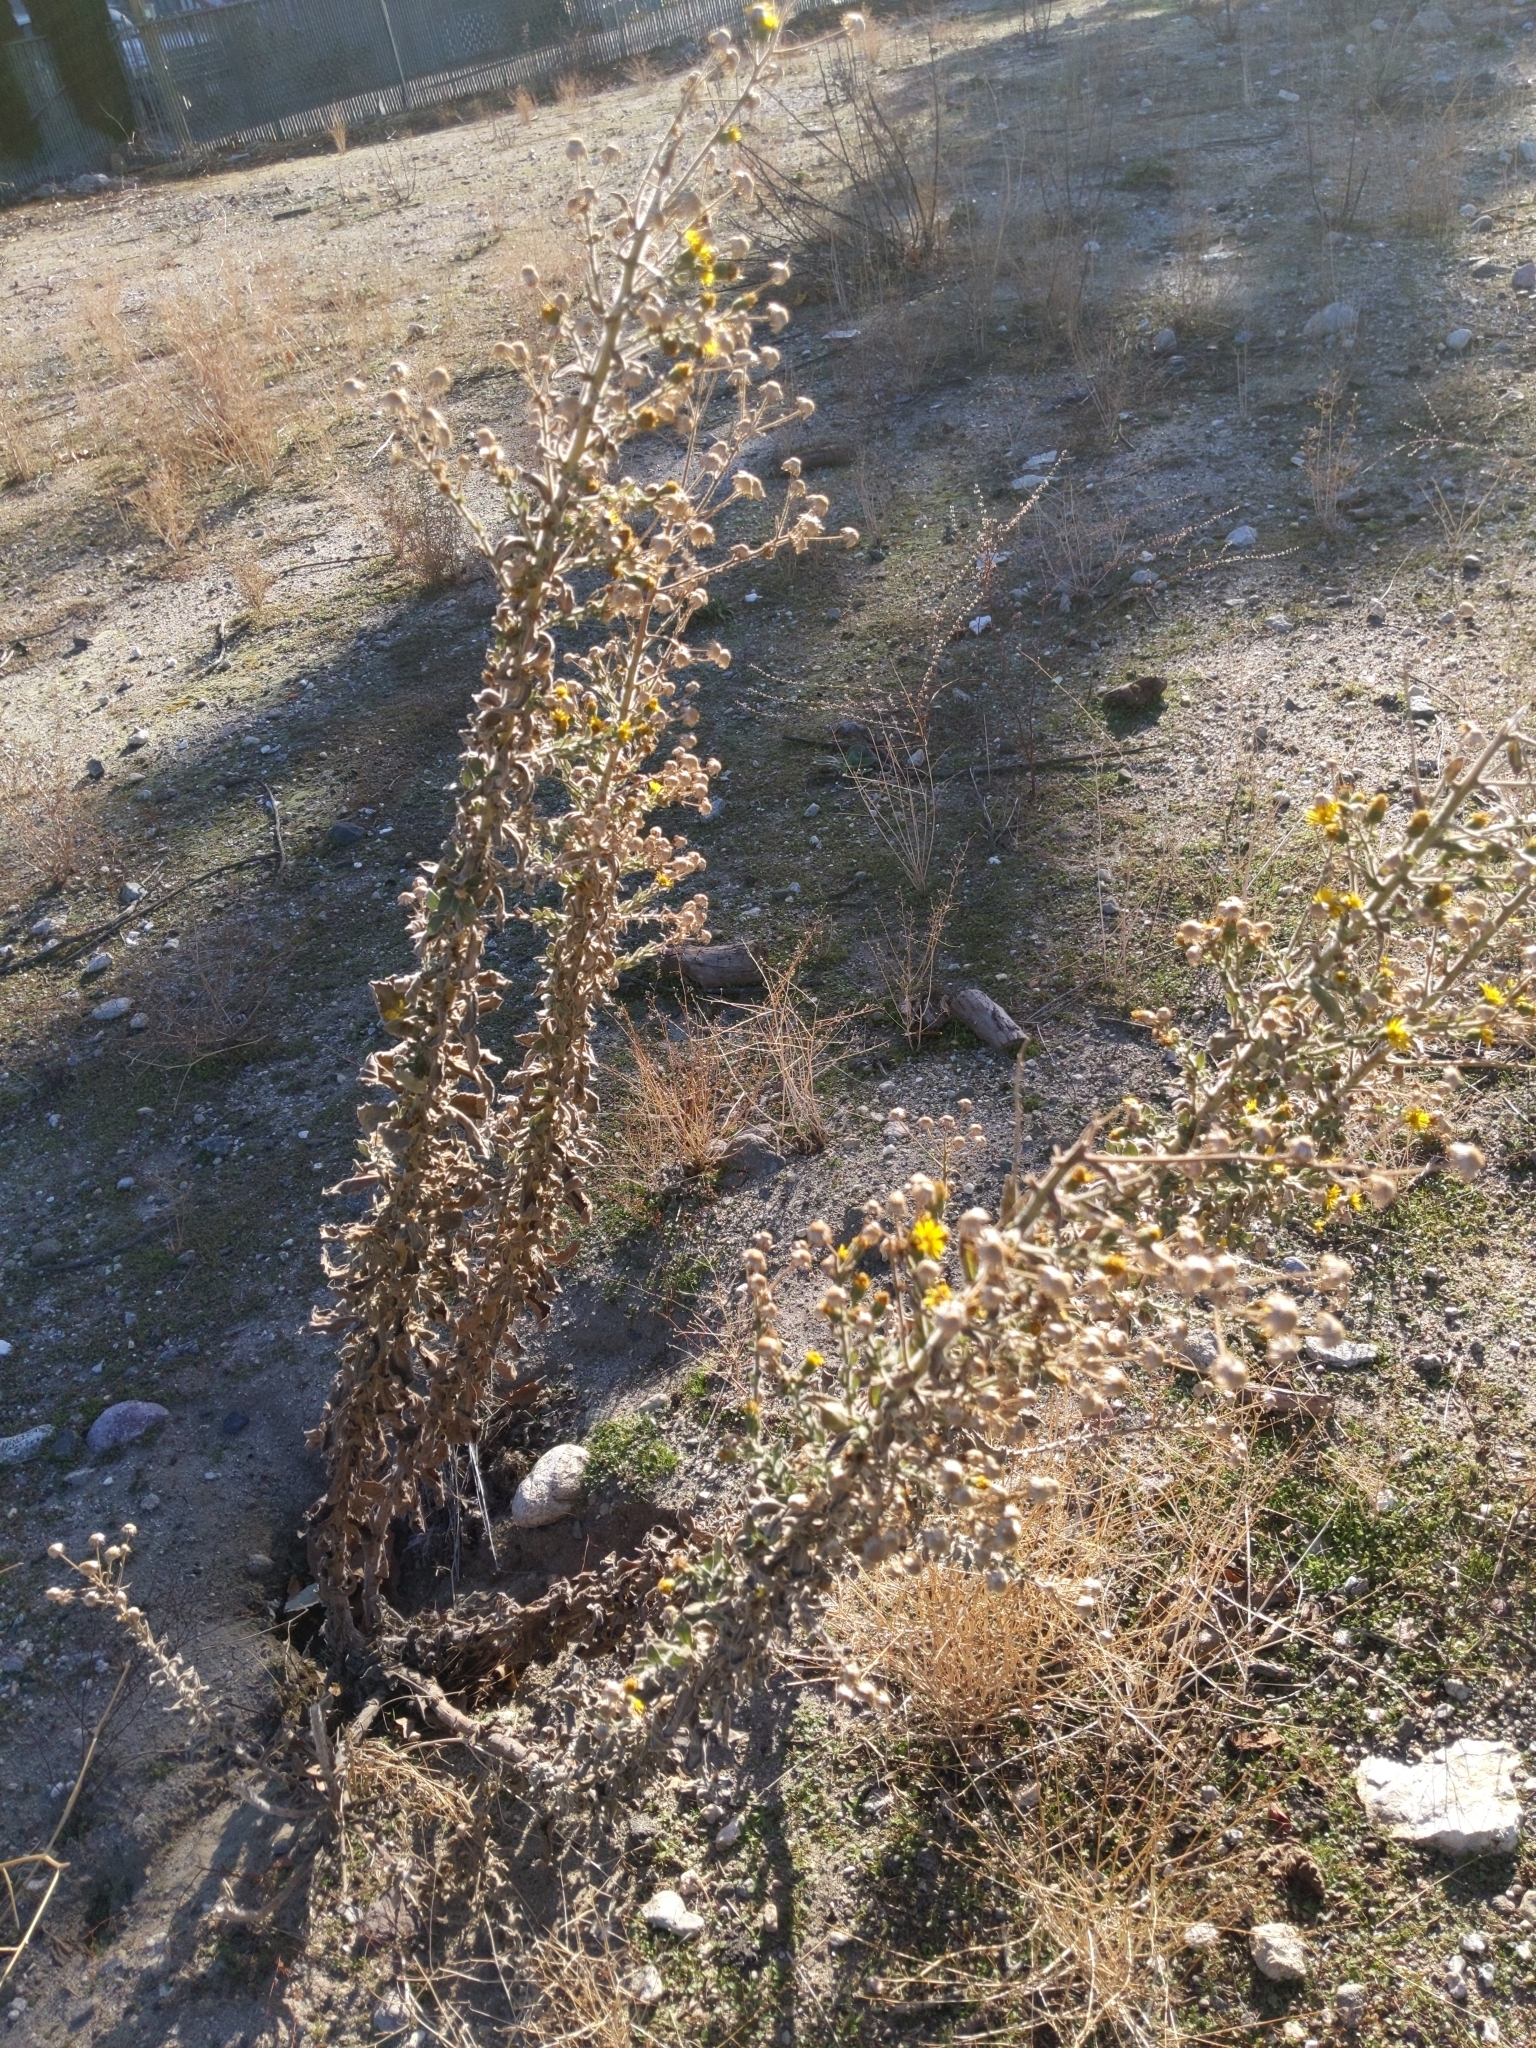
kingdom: Plantae
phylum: Tracheophyta
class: Magnoliopsida
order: Asterales
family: Asteraceae
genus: Heterotheca
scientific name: Heterotheca grandiflora
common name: Telegraphweed
